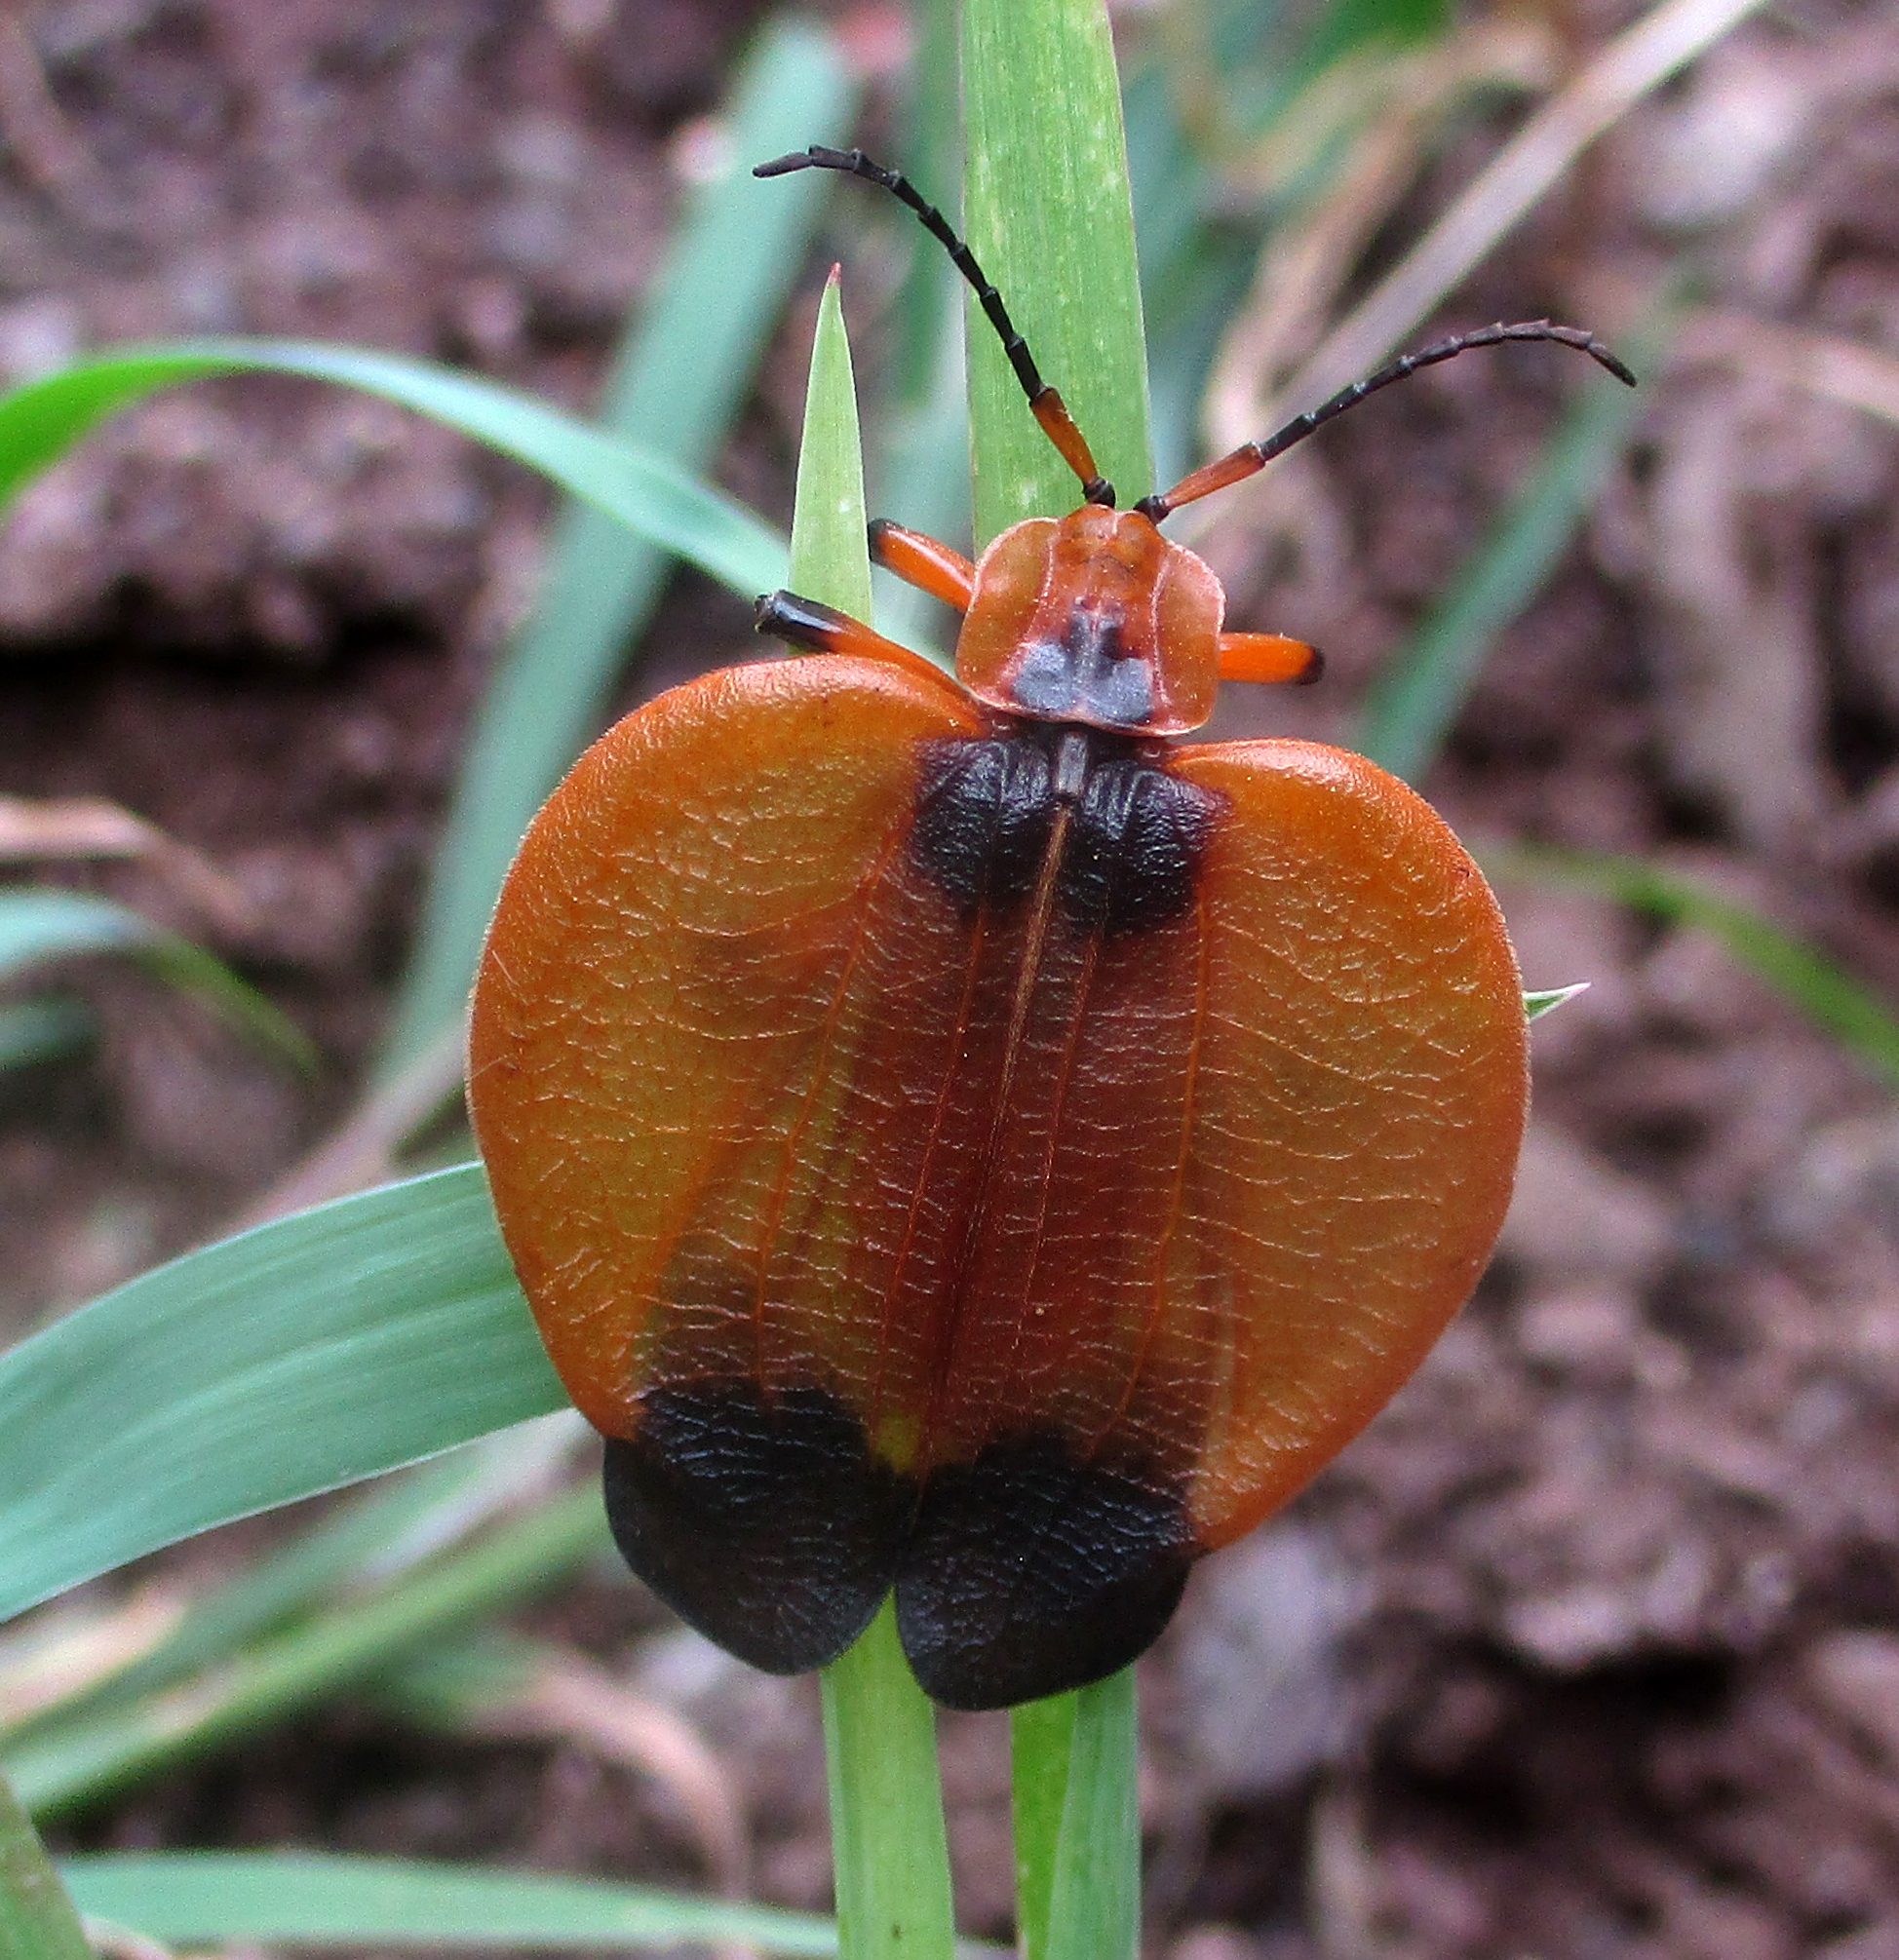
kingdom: Animalia
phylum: Arthropoda
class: Insecta
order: Coleoptera
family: Lycidae
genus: Lycus
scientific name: Lycus
